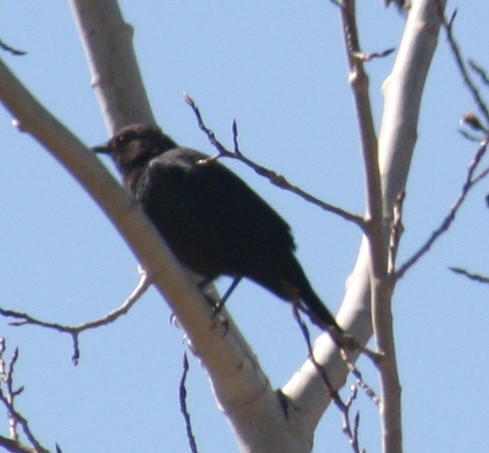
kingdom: Animalia
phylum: Chordata
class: Aves
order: Passeriformes
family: Icteridae
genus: Molothrus
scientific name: Molothrus ater
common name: Brown-headed cowbird
